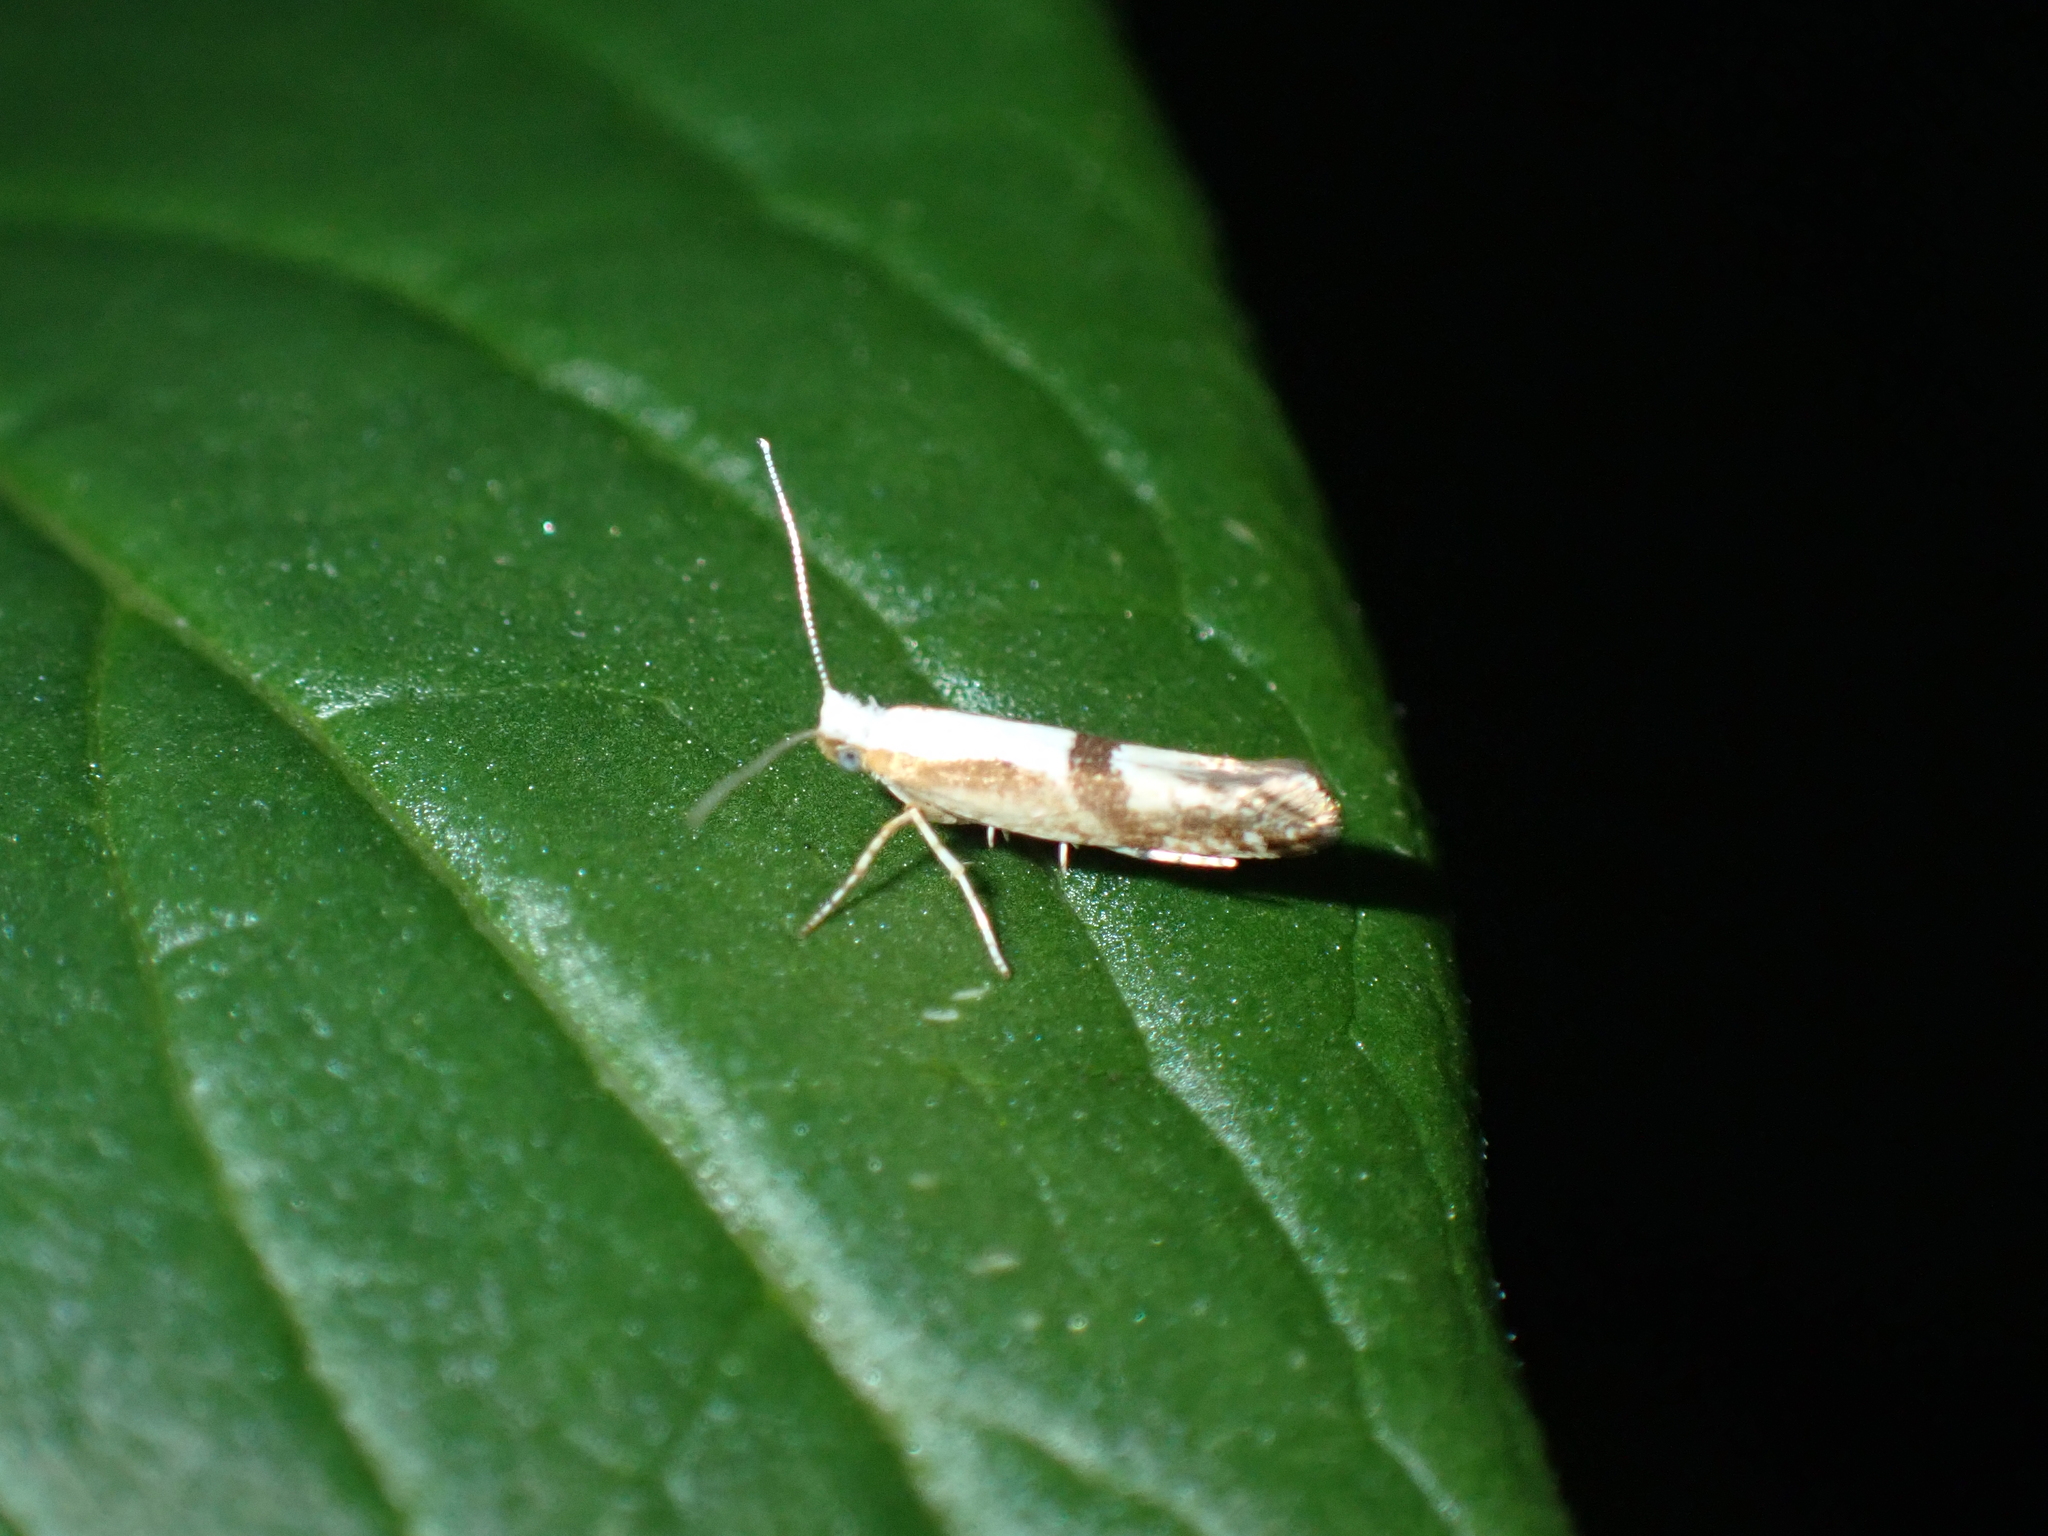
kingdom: Animalia
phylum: Arthropoda
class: Insecta
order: Lepidoptera
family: Argyresthiidae
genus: Argyresthia
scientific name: Argyresthia pruniella
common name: Cherry fruit moth
